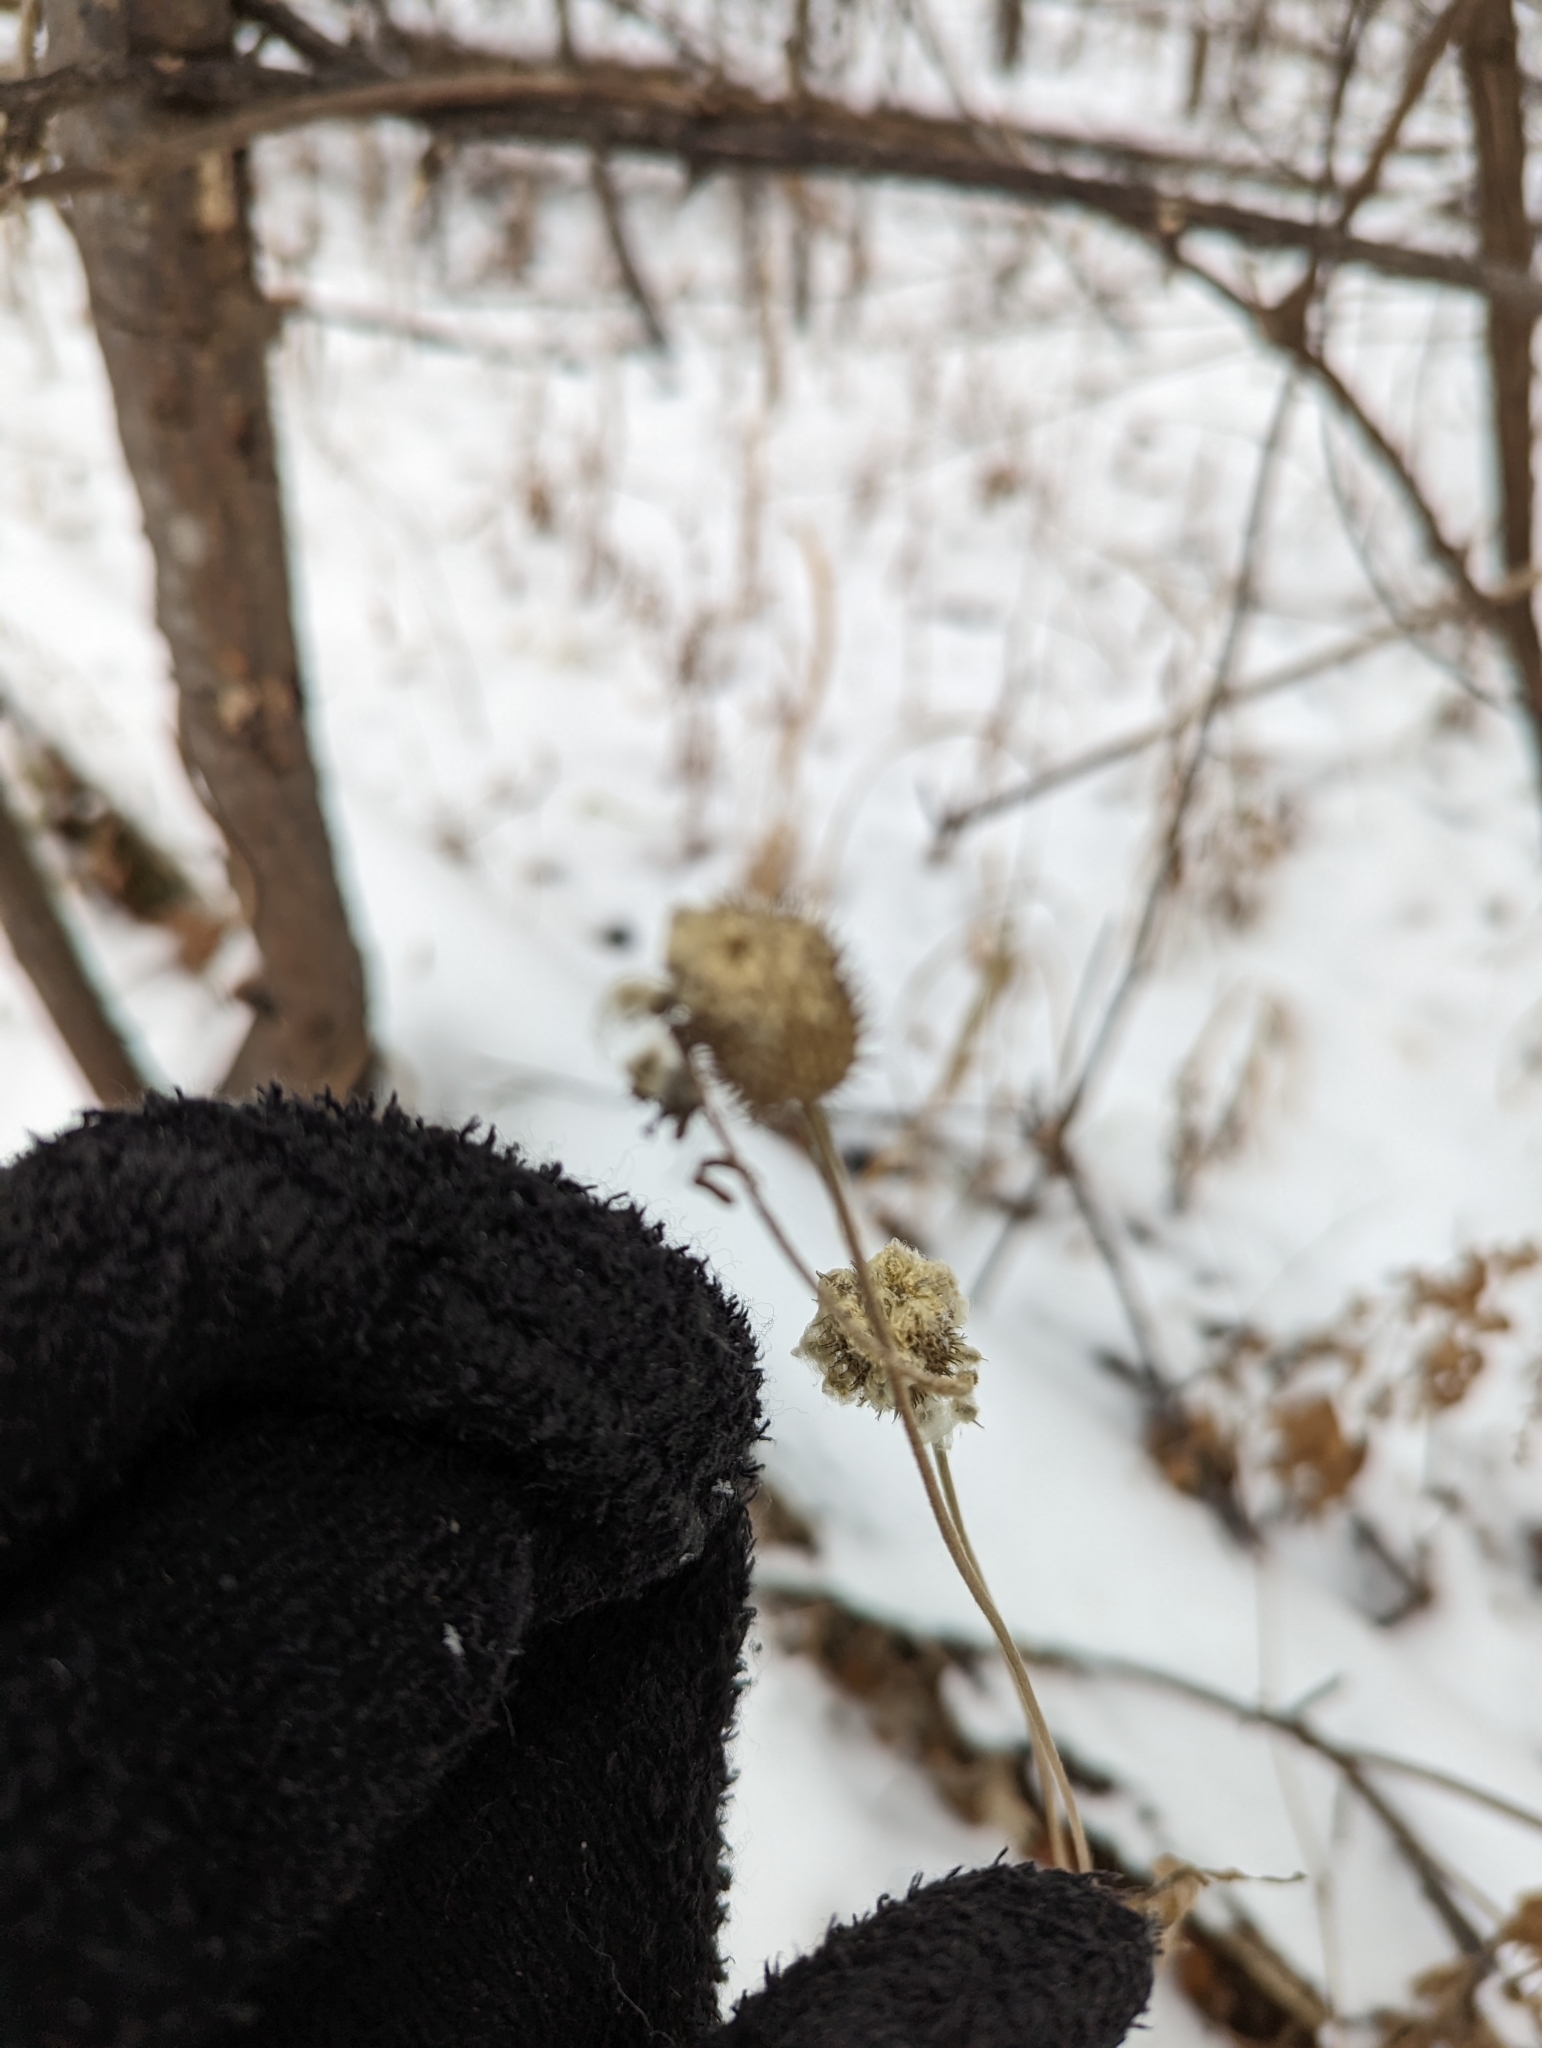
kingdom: Plantae
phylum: Tracheophyta
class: Magnoliopsida
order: Ranunculales
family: Ranunculaceae
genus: Anemone
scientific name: Anemone virginiana
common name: Tall anemone
